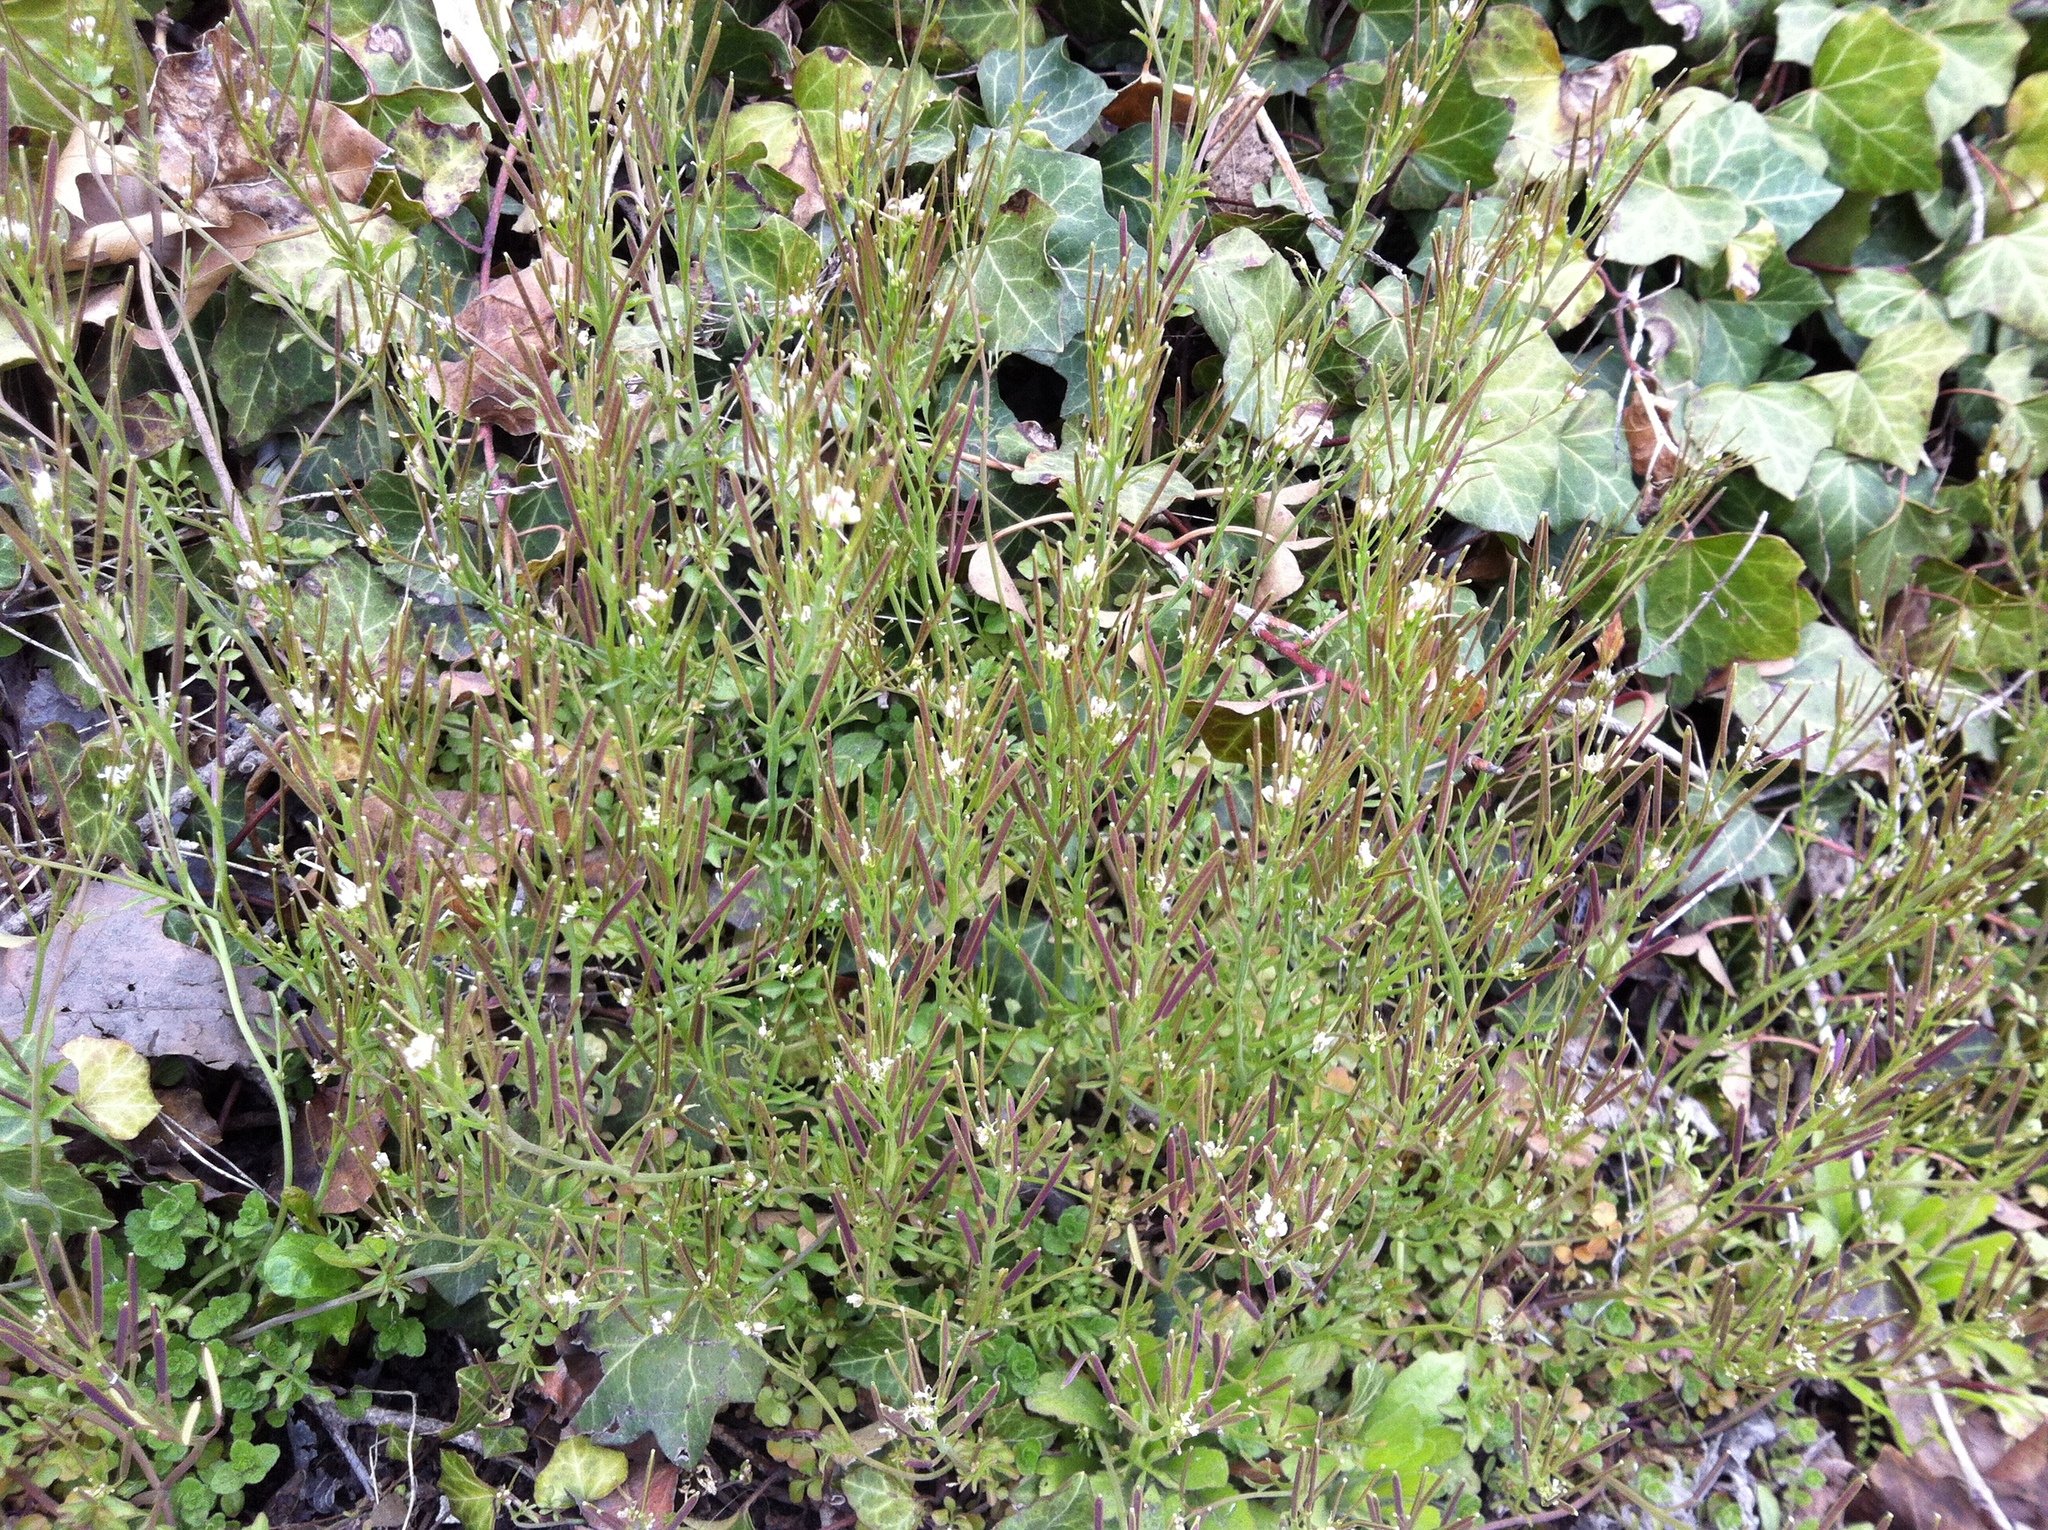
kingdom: Plantae
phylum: Tracheophyta
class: Magnoliopsida
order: Brassicales
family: Brassicaceae
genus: Cardamine
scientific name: Cardamine hirsuta
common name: Hairy bittercress
